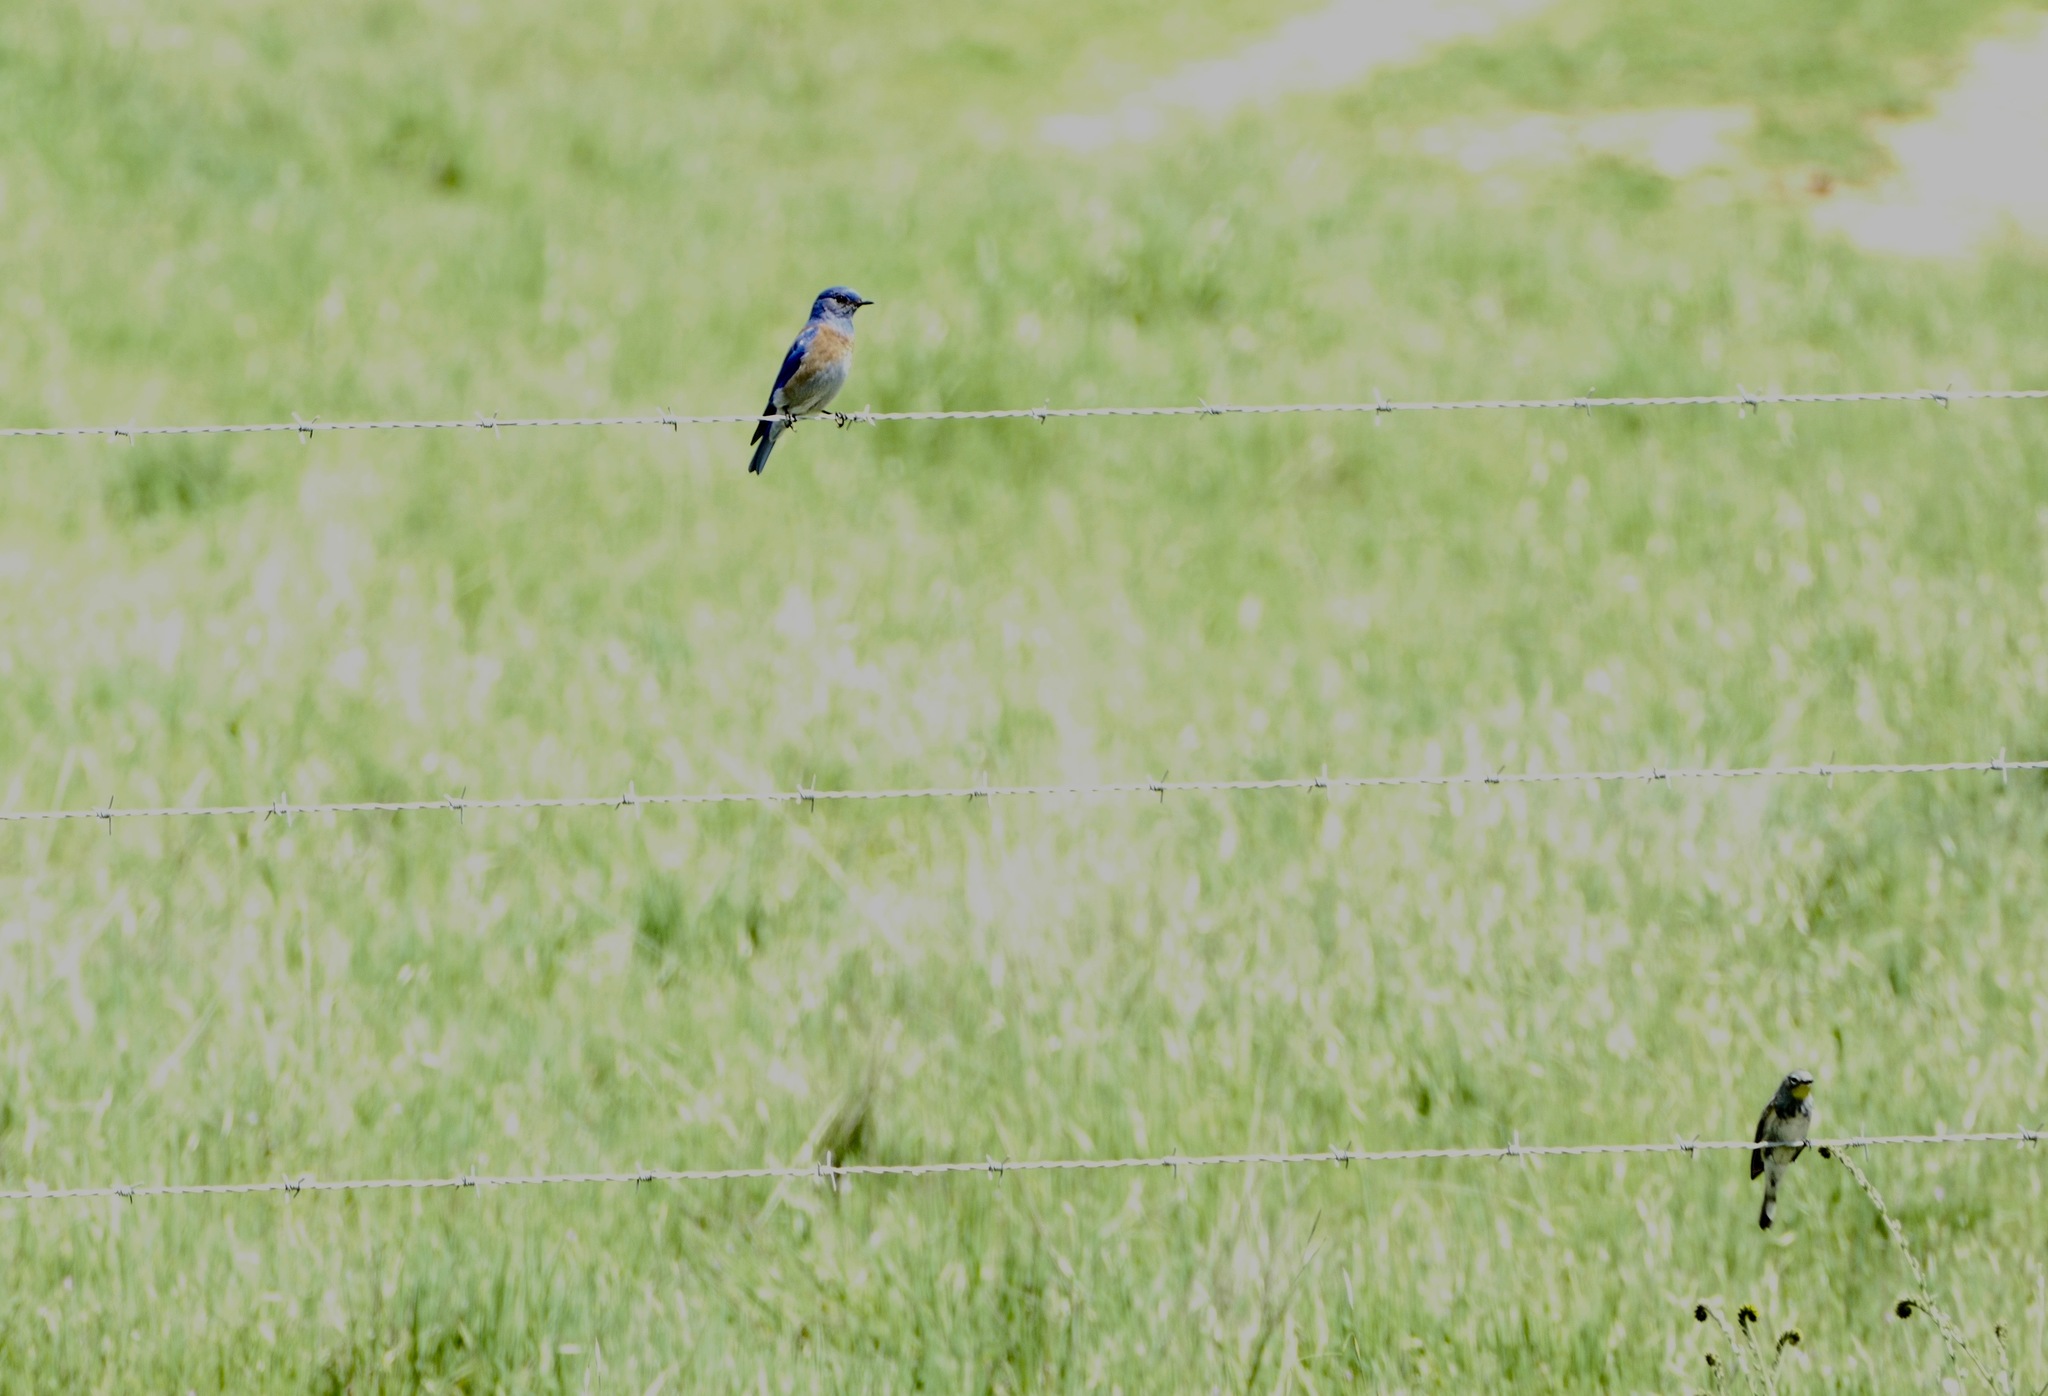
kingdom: Animalia
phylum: Chordata
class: Aves
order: Passeriformes
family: Turdidae
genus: Sialia
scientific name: Sialia mexicana
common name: Western bluebird
